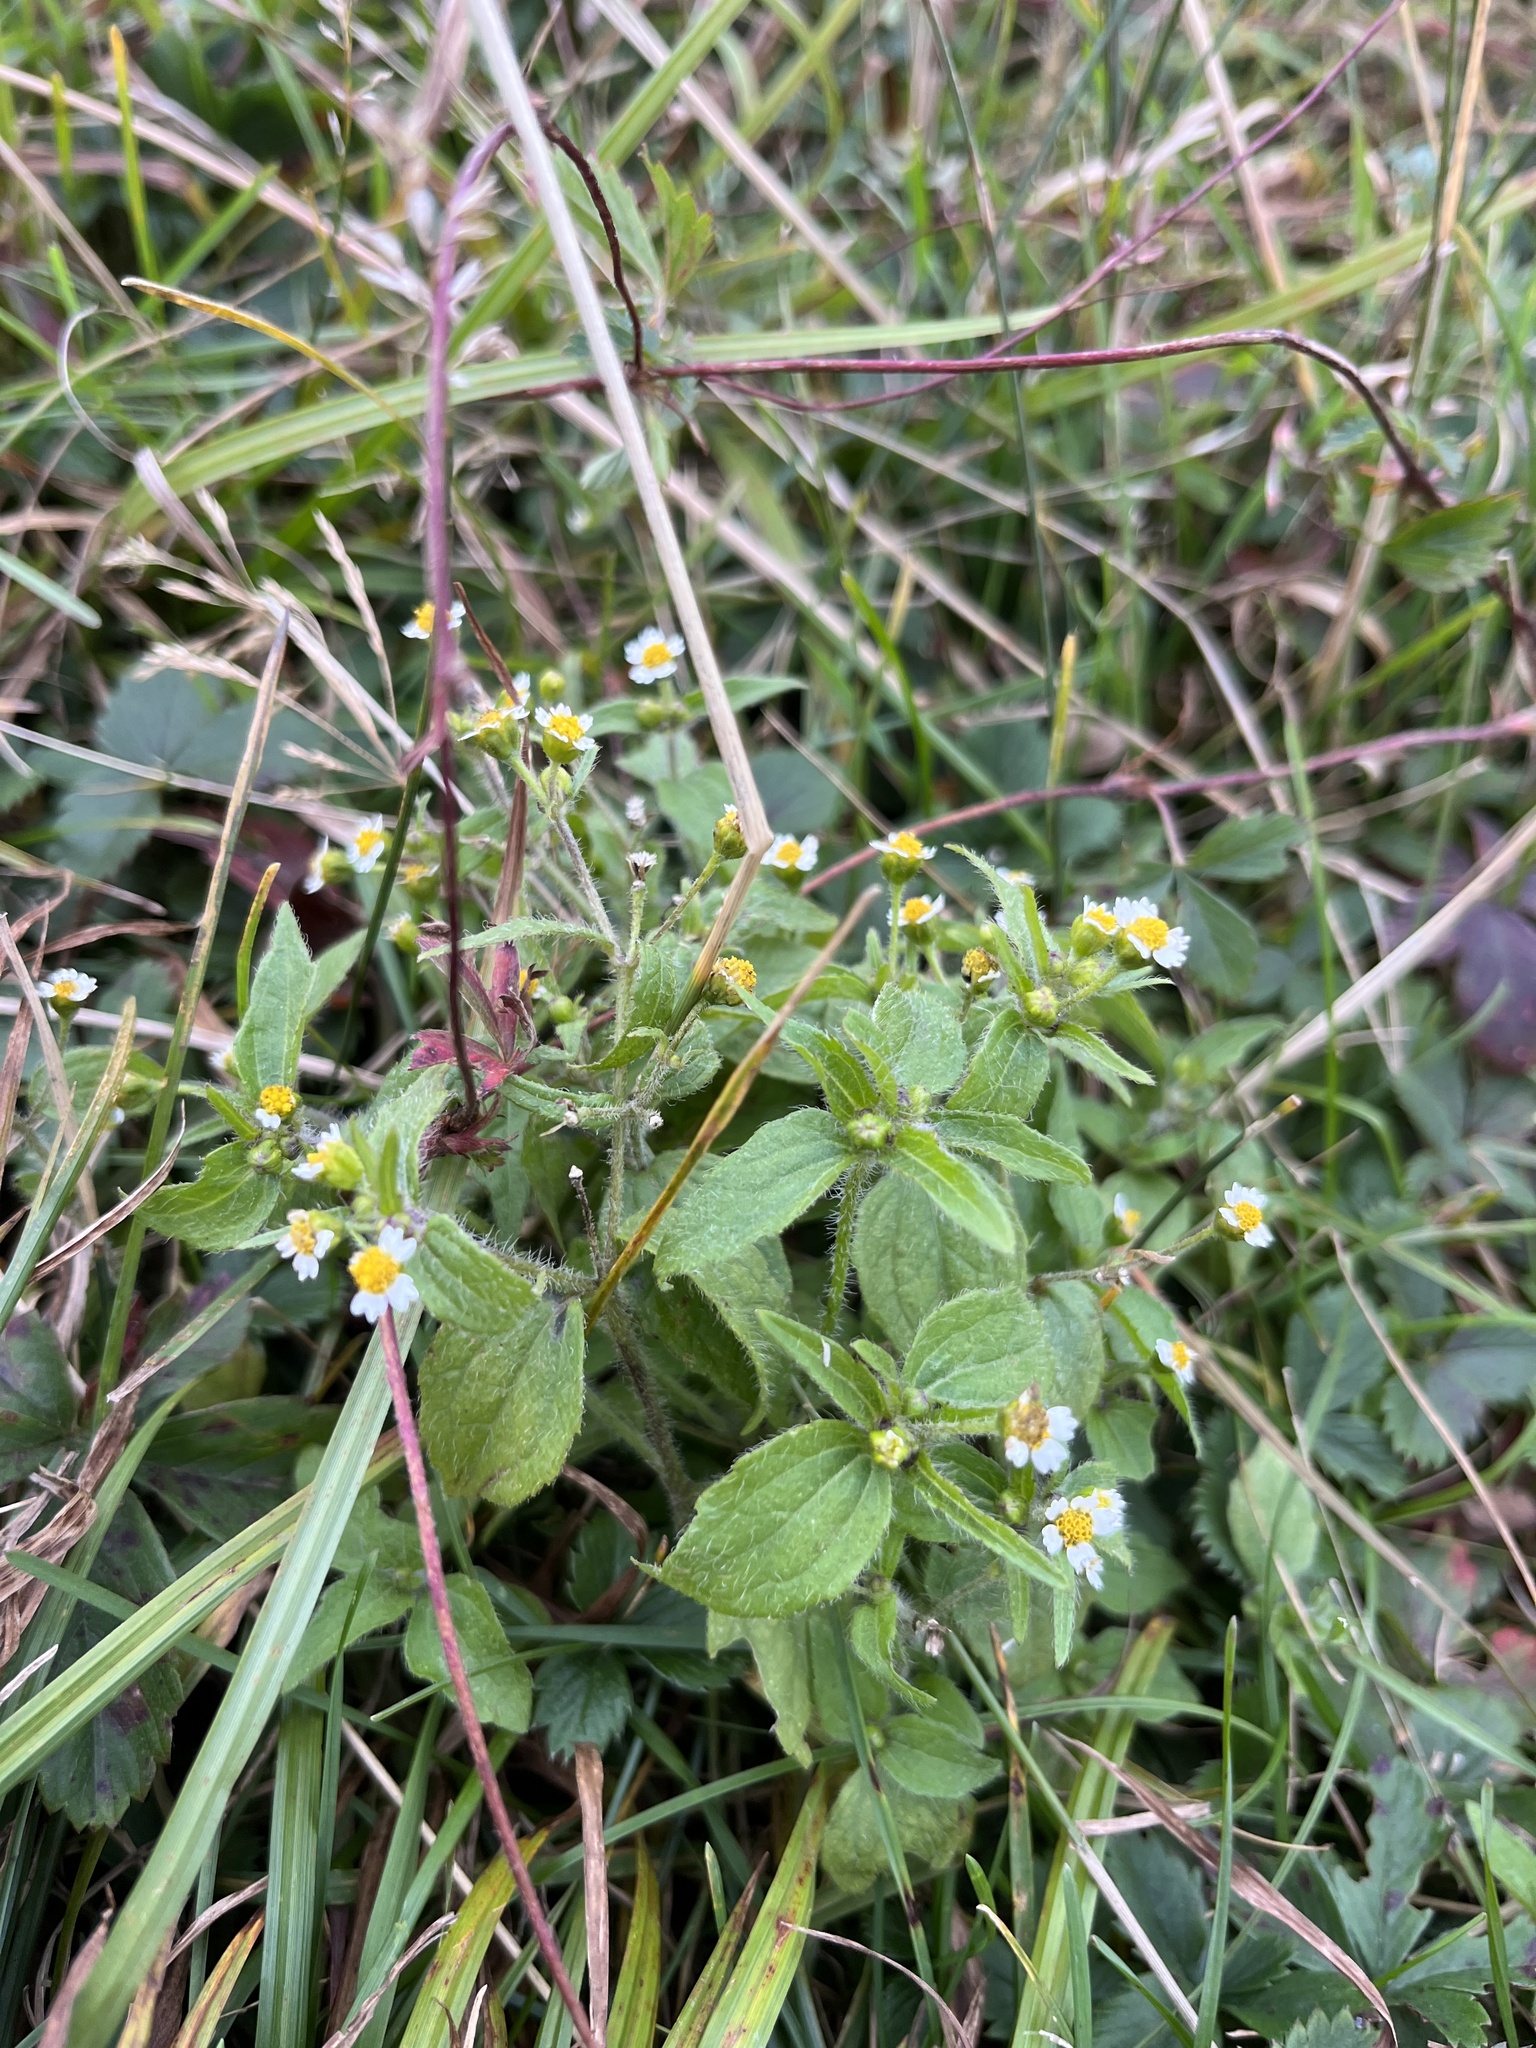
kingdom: Plantae
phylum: Tracheophyta
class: Magnoliopsida
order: Asterales
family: Asteraceae
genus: Galinsoga
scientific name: Galinsoga quadriradiata
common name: Shaggy soldier
